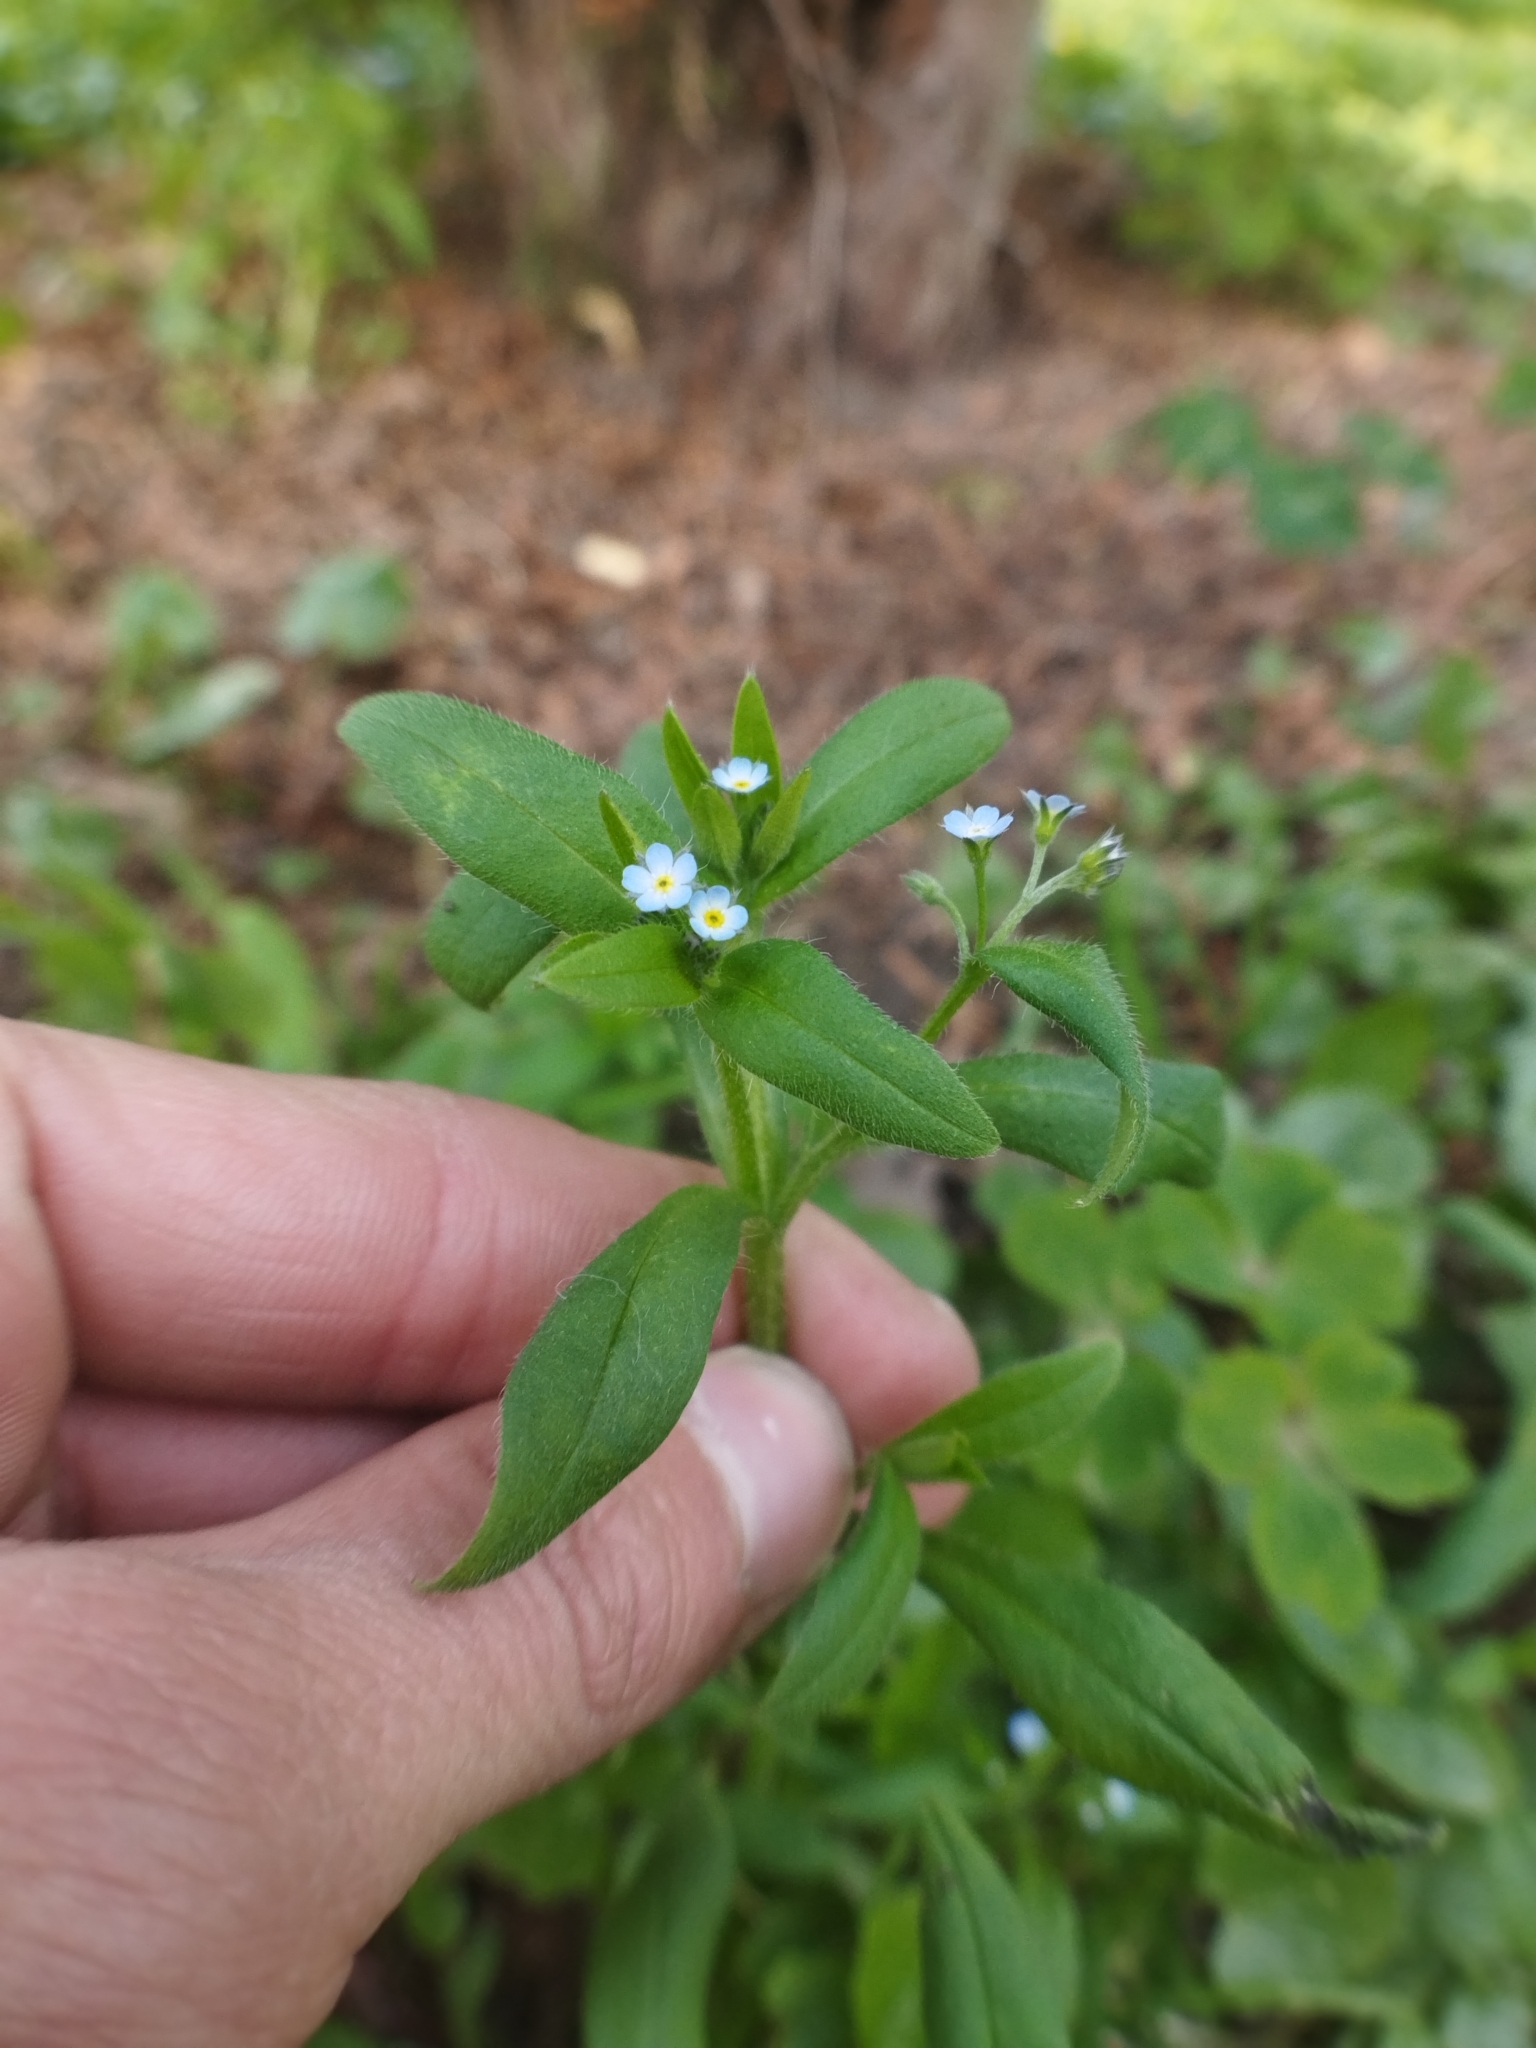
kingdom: Plantae
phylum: Tracheophyta
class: Magnoliopsida
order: Boraginales
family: Boraginaceae
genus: Myosotis
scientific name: Myosotis sparsiflora
